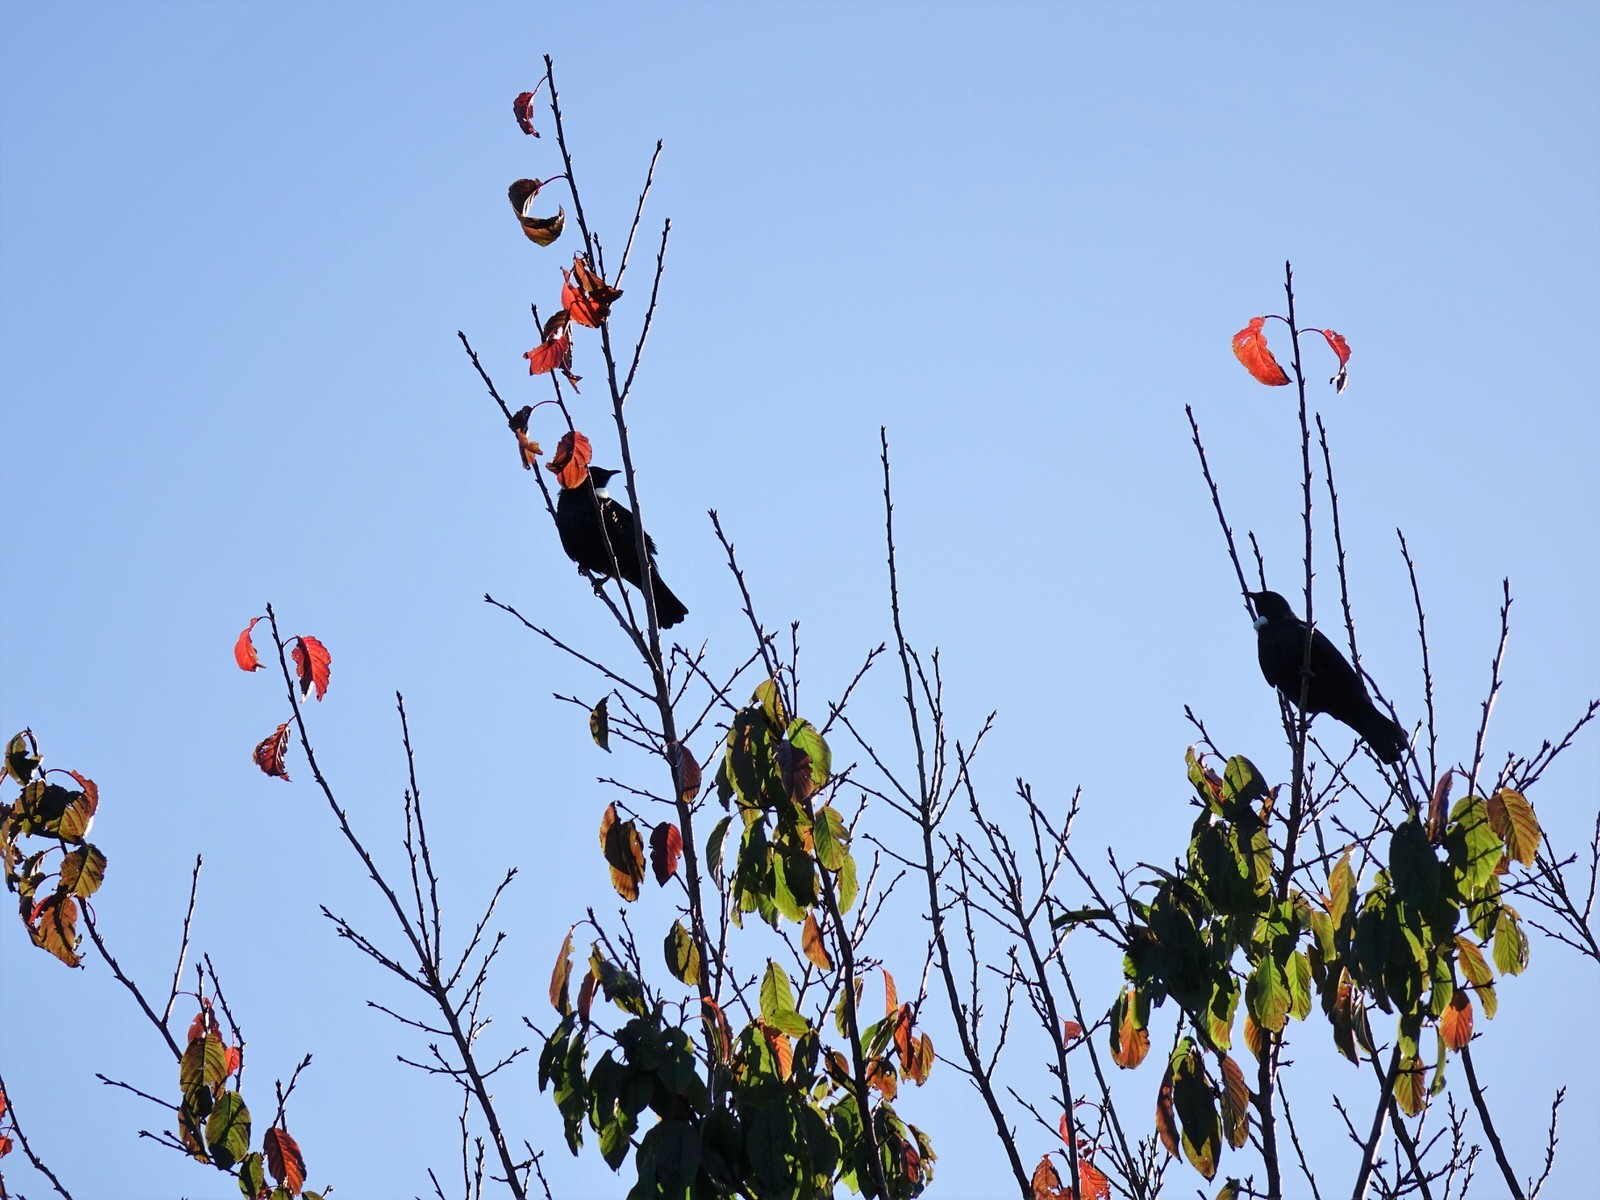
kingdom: Animalia
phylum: Chordata
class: Aves
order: Passeriformes
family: Meliphagidae
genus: Prosthemadera
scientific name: Prosthemadera novaeseelandiae
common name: Tui
